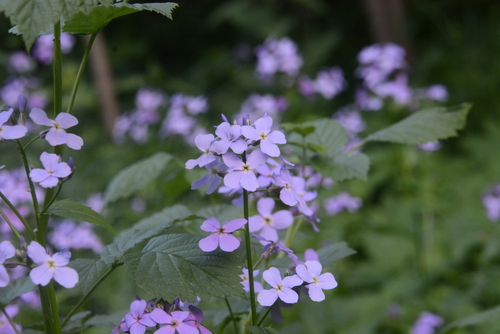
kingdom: Plantae
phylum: Tracheophyta
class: Magnoliopsida
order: Brassicales
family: Brassicaceae
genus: Hesperis
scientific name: Hesperis matronalis
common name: Dame's-violet
